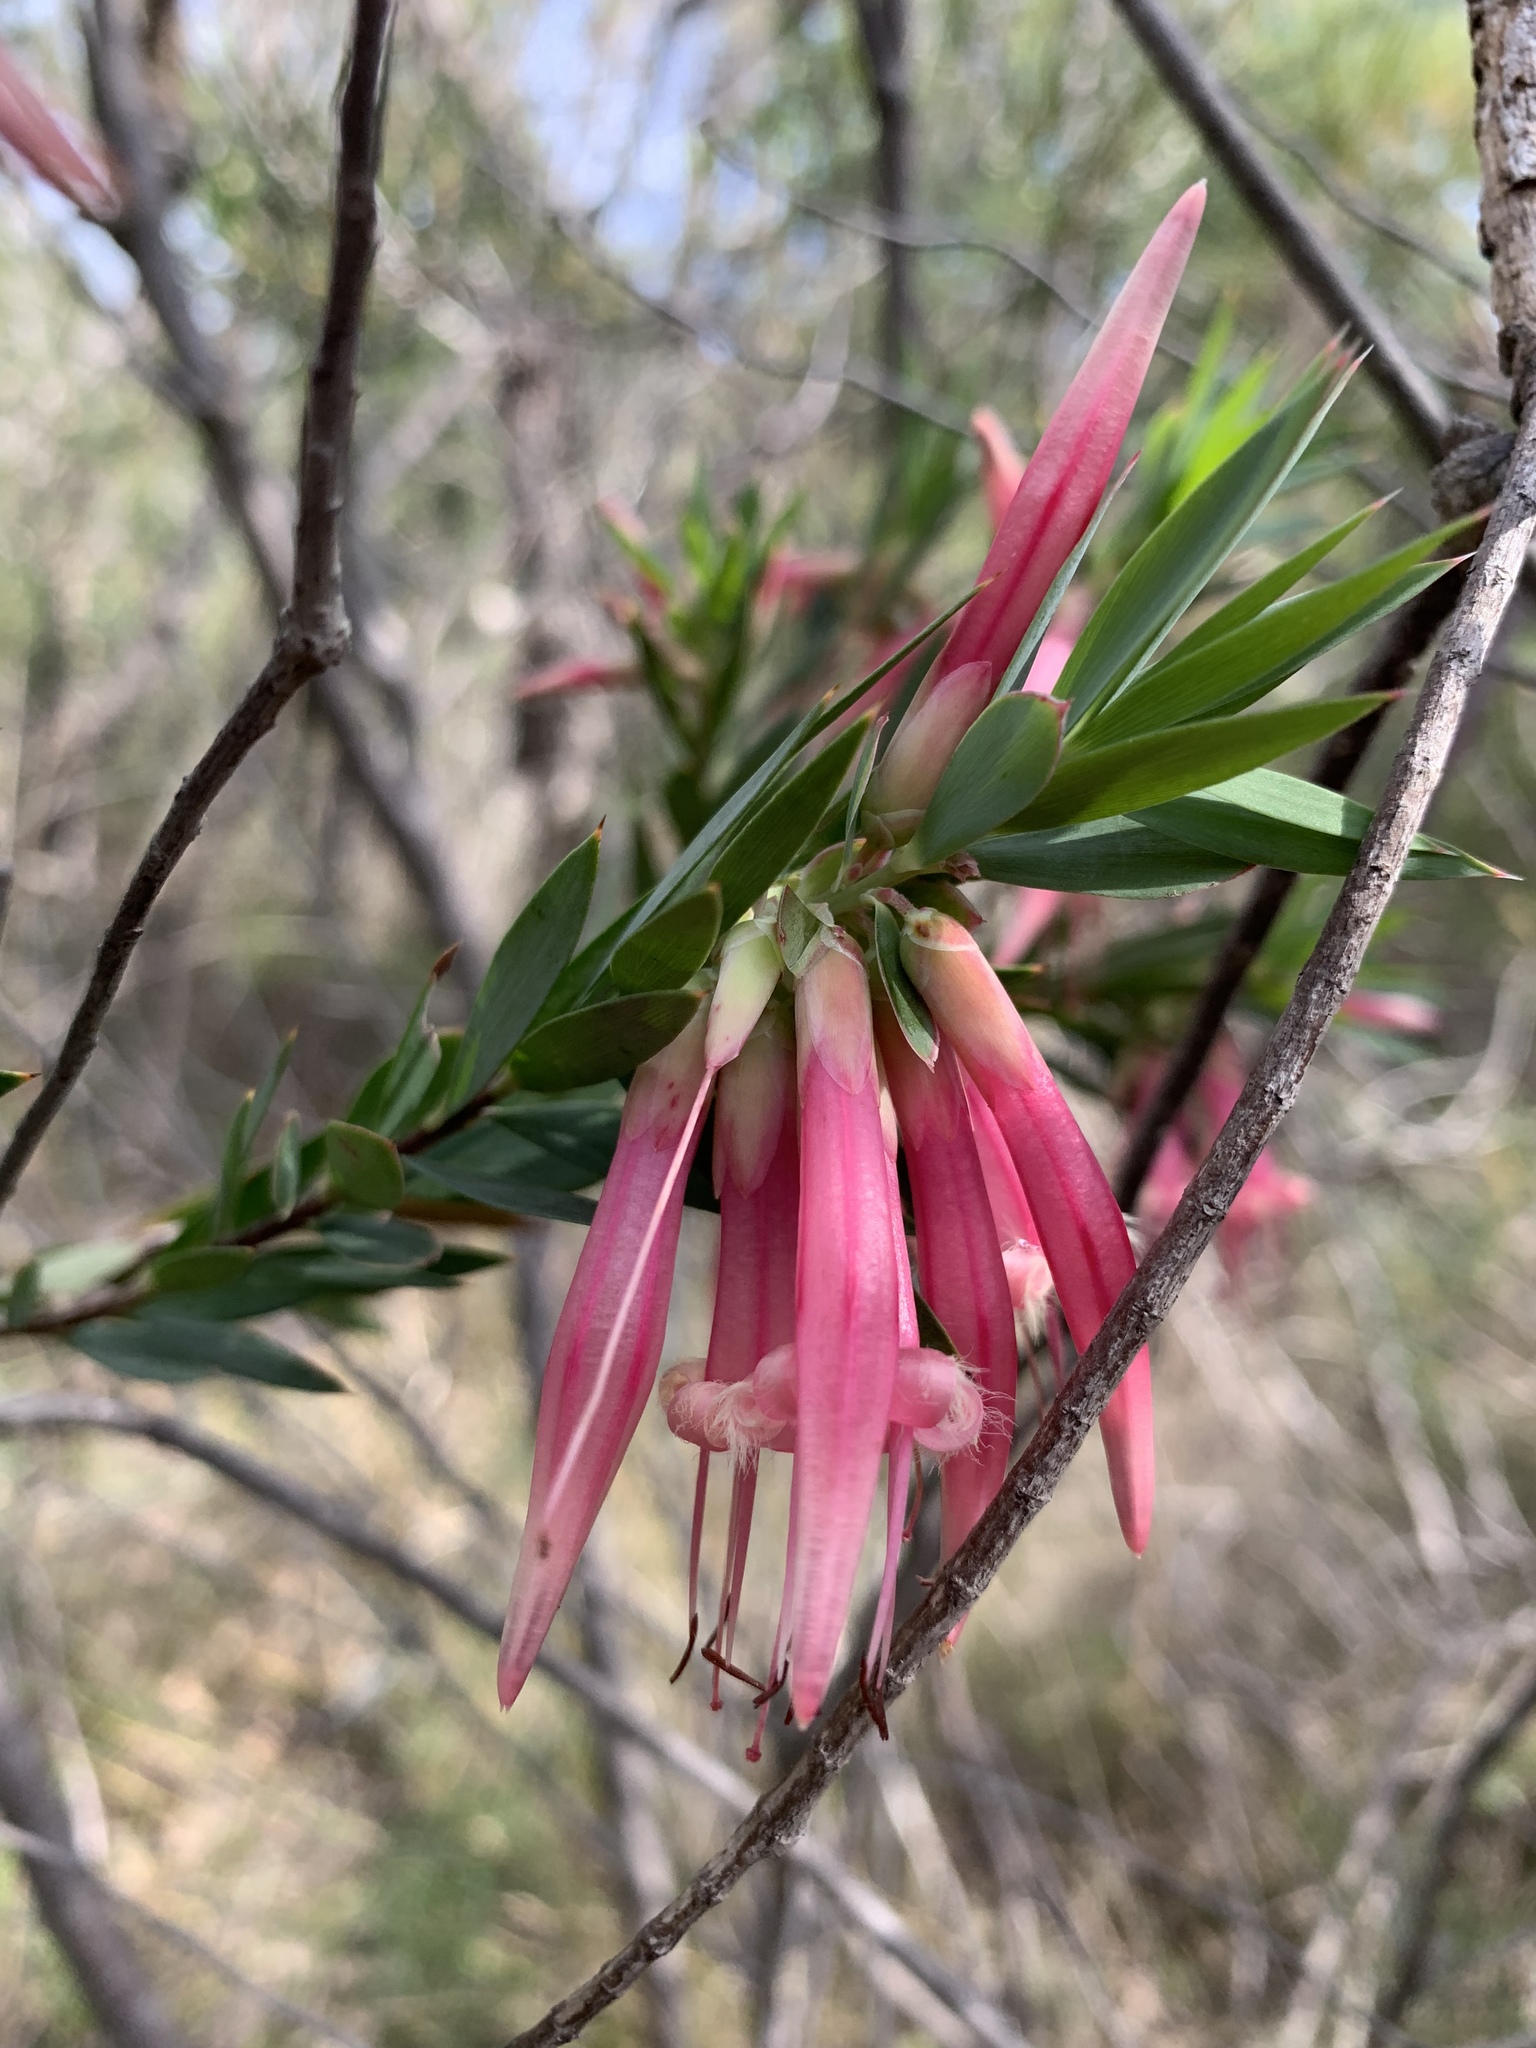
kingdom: Plantae
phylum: Tracheophyta
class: Magnoliopsida
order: Ericales
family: Ericaceae
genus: Styphelia
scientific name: Styphelia triflora
